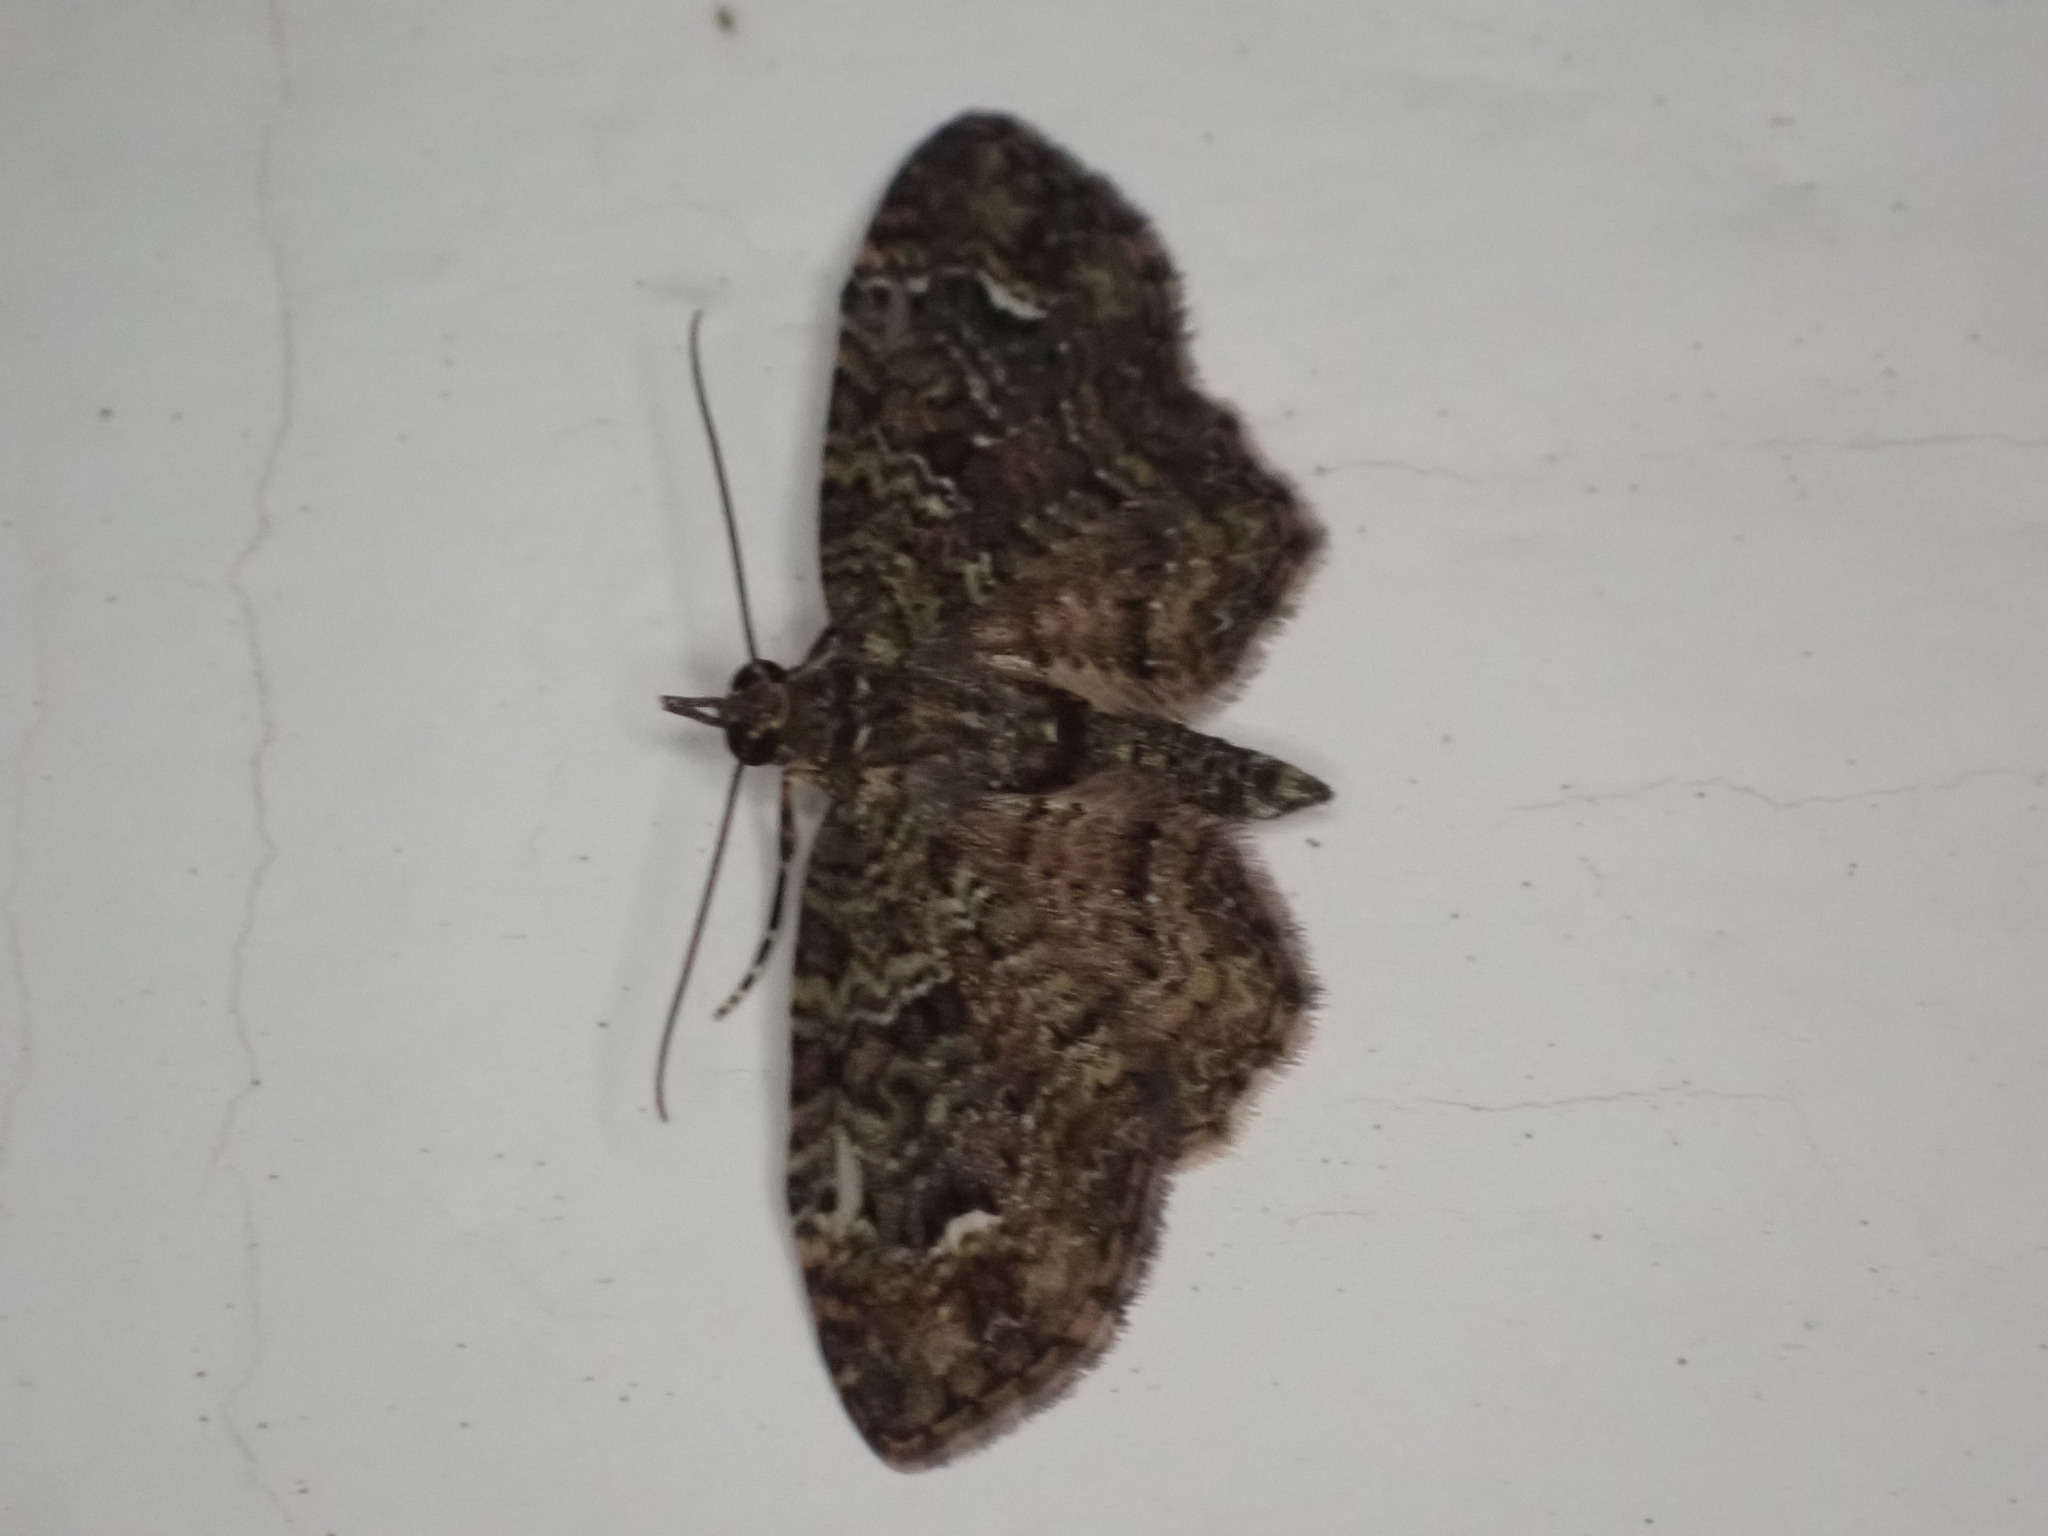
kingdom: Animalia
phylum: Arthropoda
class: Insecta
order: Lepidoptera
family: Geometridae
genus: Pasiphilodes
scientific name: Pasiphilodes testulata
